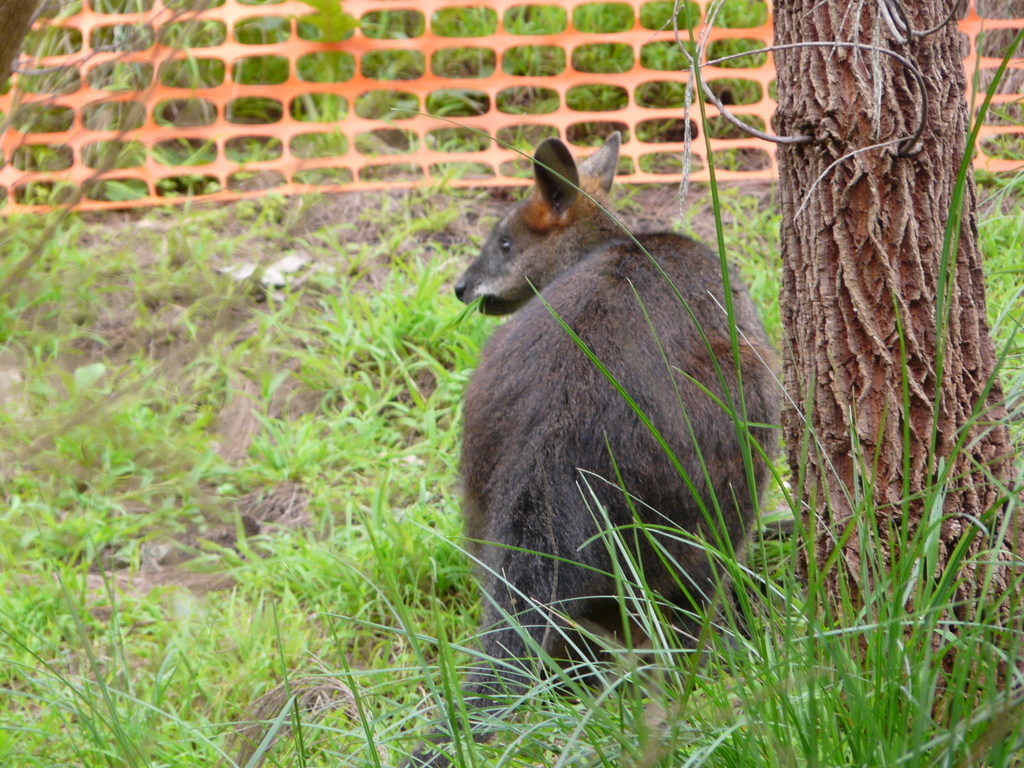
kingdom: Animalia
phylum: Chordata
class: Mammalia
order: Diprotodontia
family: Macropodidae
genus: Wallabia
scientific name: Wallabia bicolor
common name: Swamp wallaby
